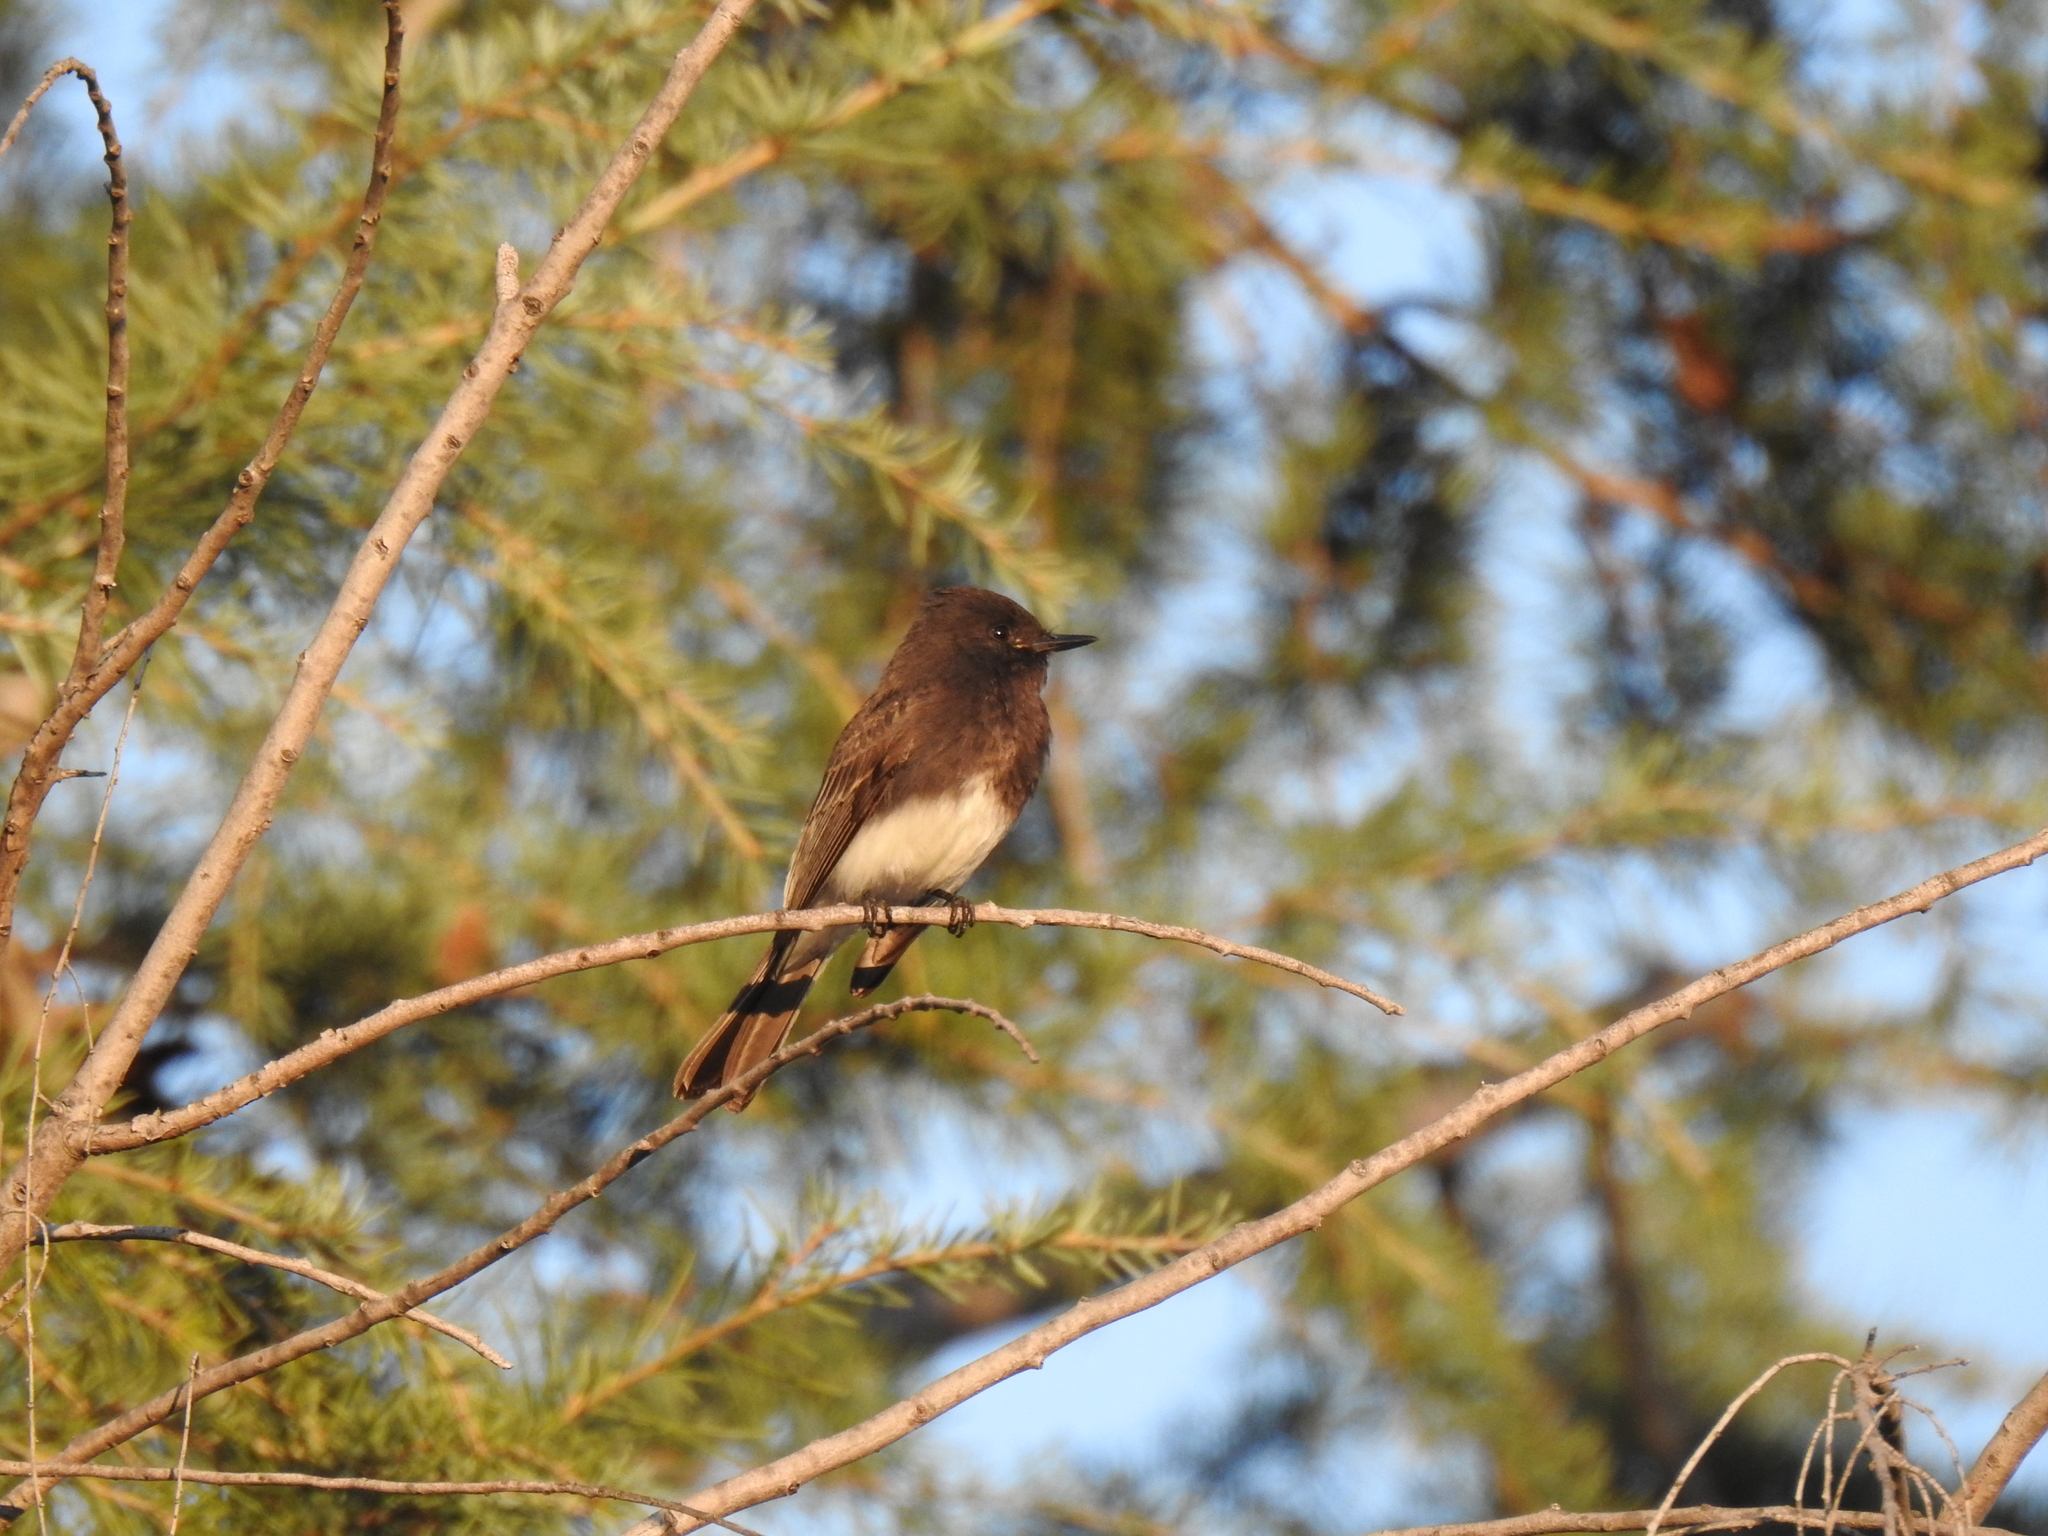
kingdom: Animalia
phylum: Chordata
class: Aves
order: Passeriformes
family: Tyrannidae
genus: Sayornis
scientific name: Sayornis nigricans
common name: Black phoebe
